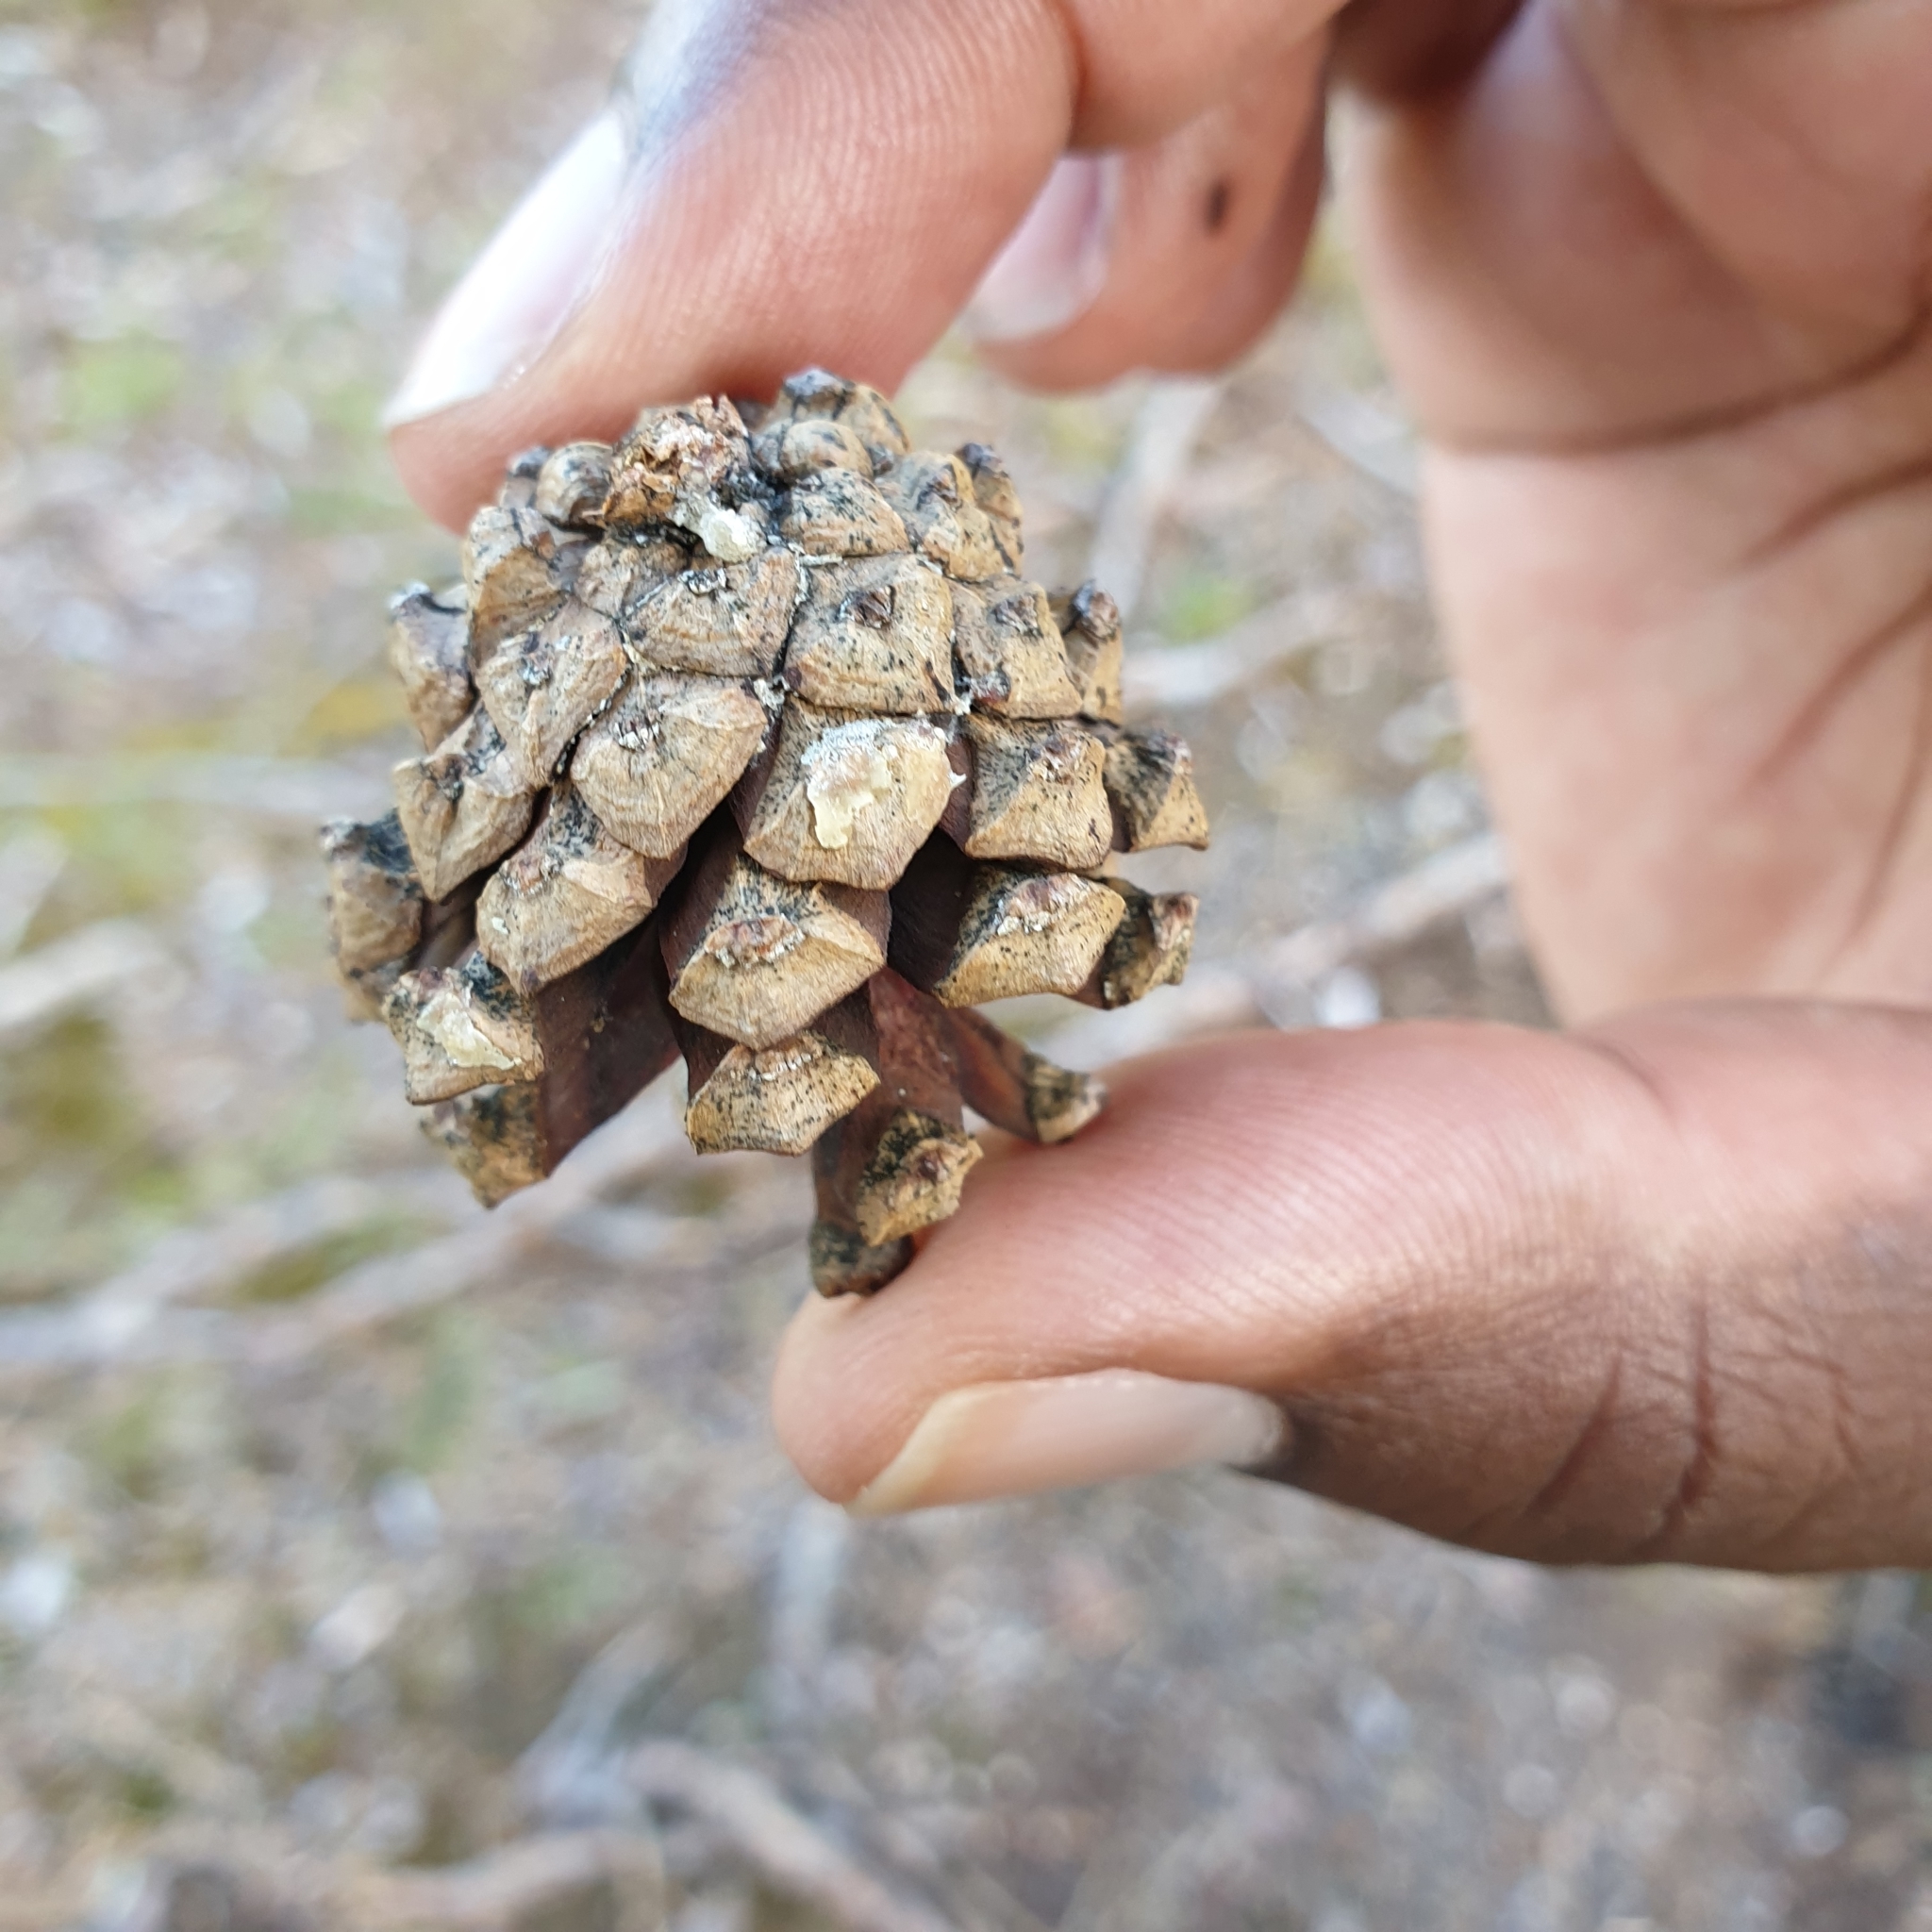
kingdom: Plantae
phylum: Tracheophyta
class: Pinopsida
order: Pinales
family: Pinaceae
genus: Pinus
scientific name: Pinus sylvestris
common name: Scots pine
